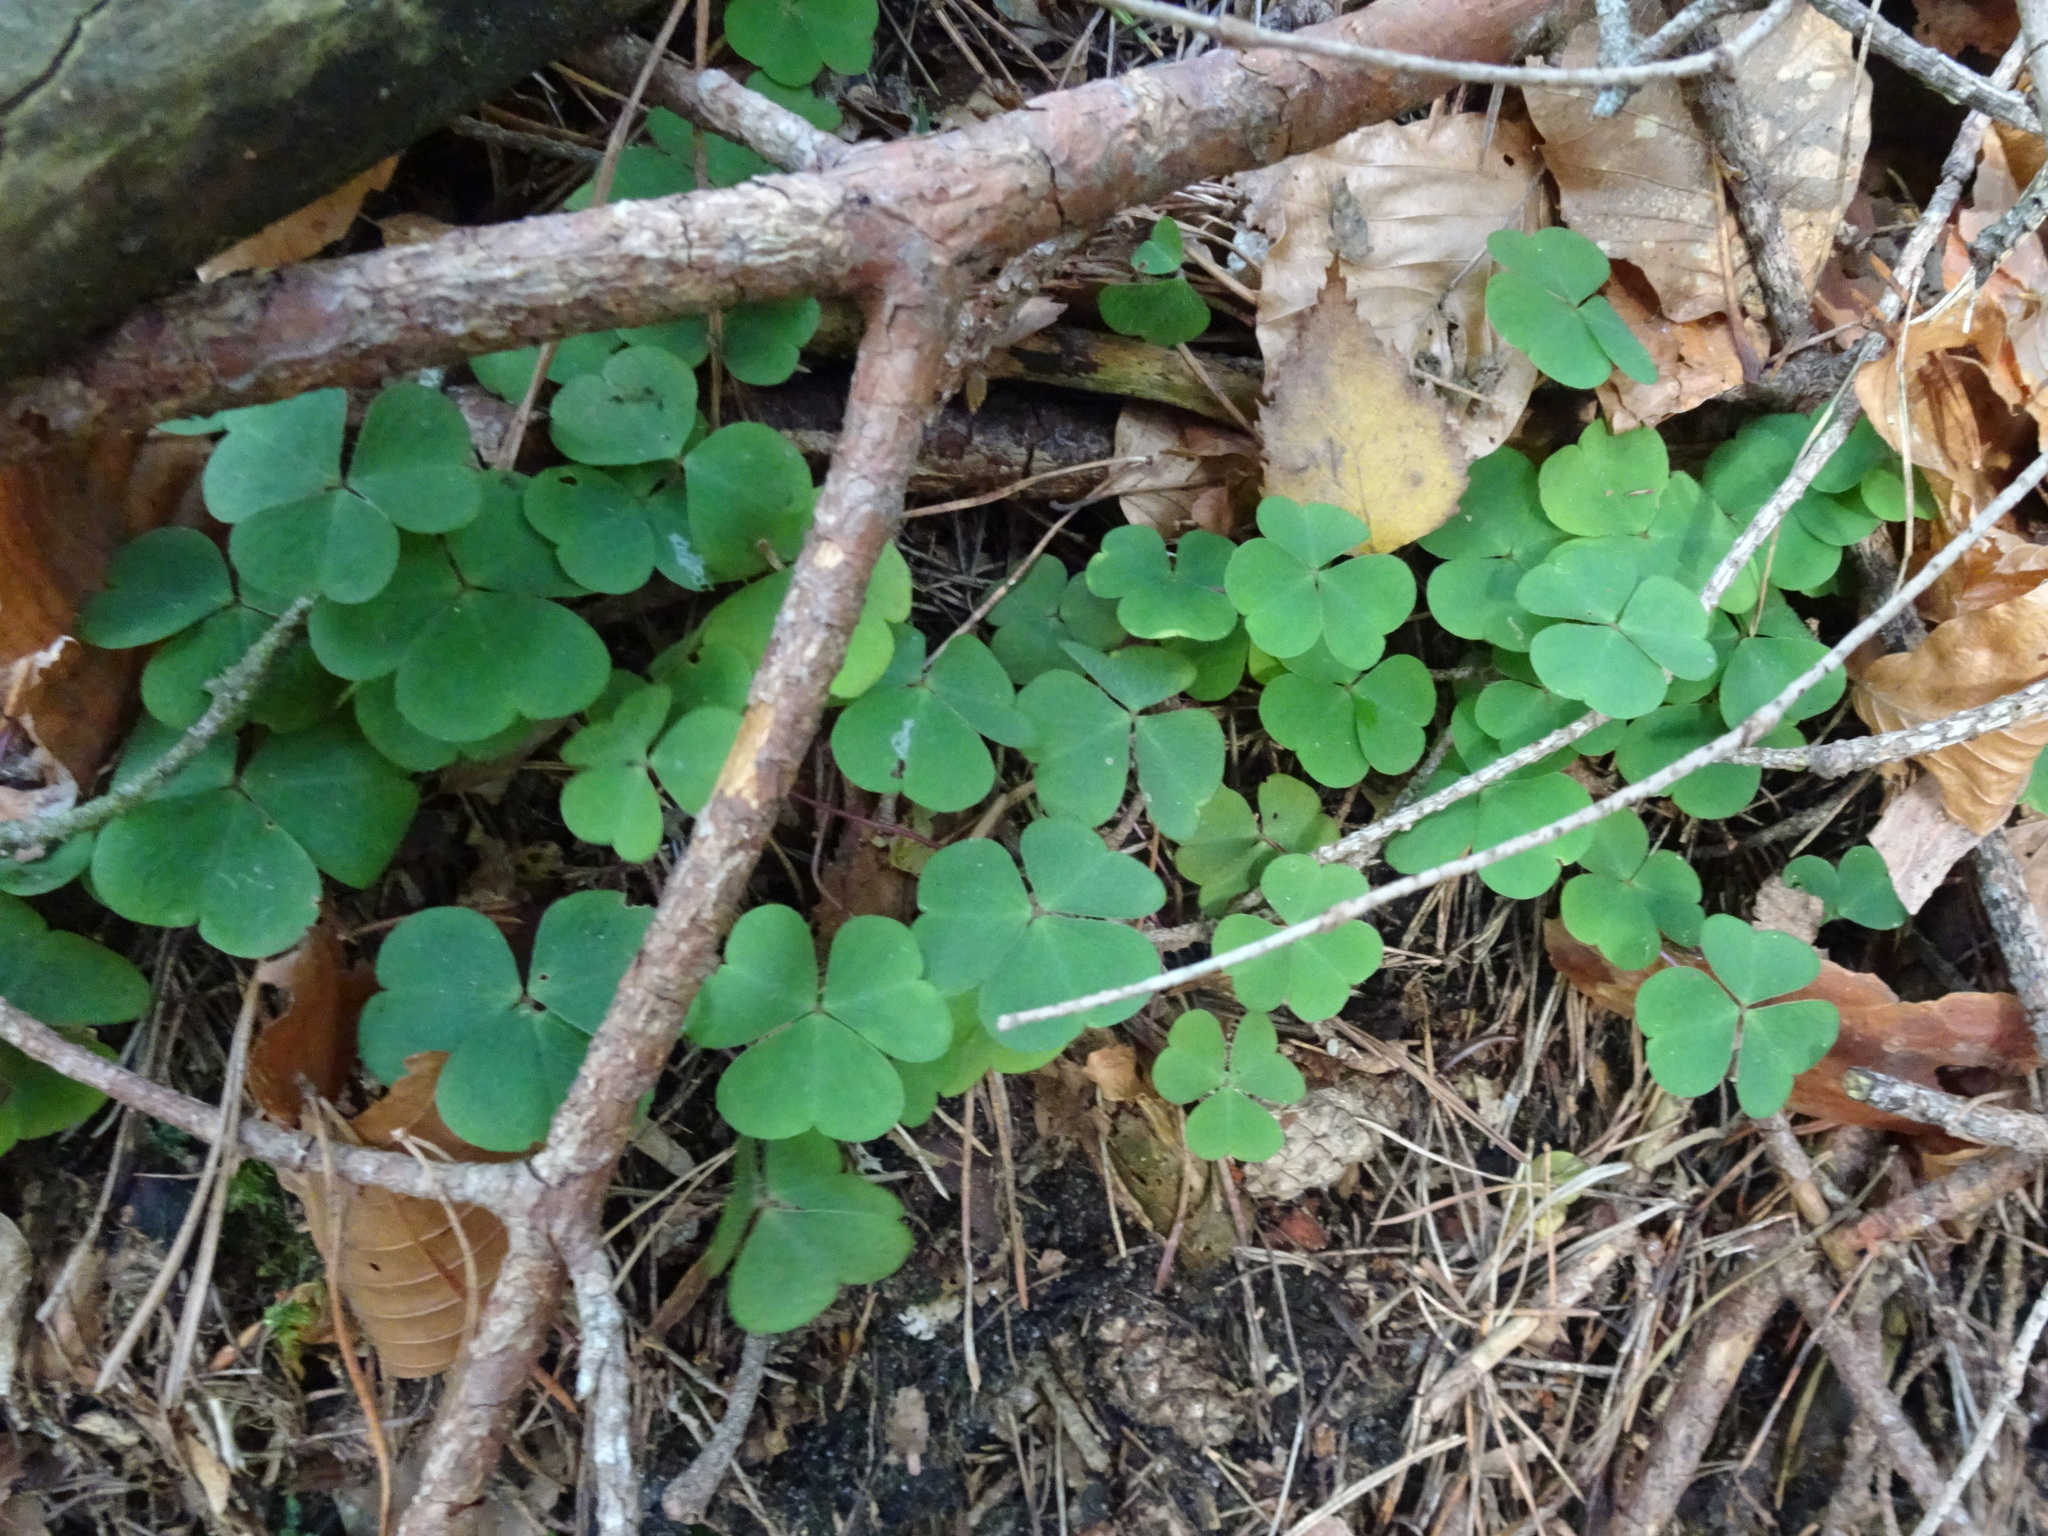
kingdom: Plantae
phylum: Tracheophyta
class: Magnoliopsida
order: Oxalidales
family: Oxalidaceae
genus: Oxalis
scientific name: Oxalis acetosella
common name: Wood-sorrel
